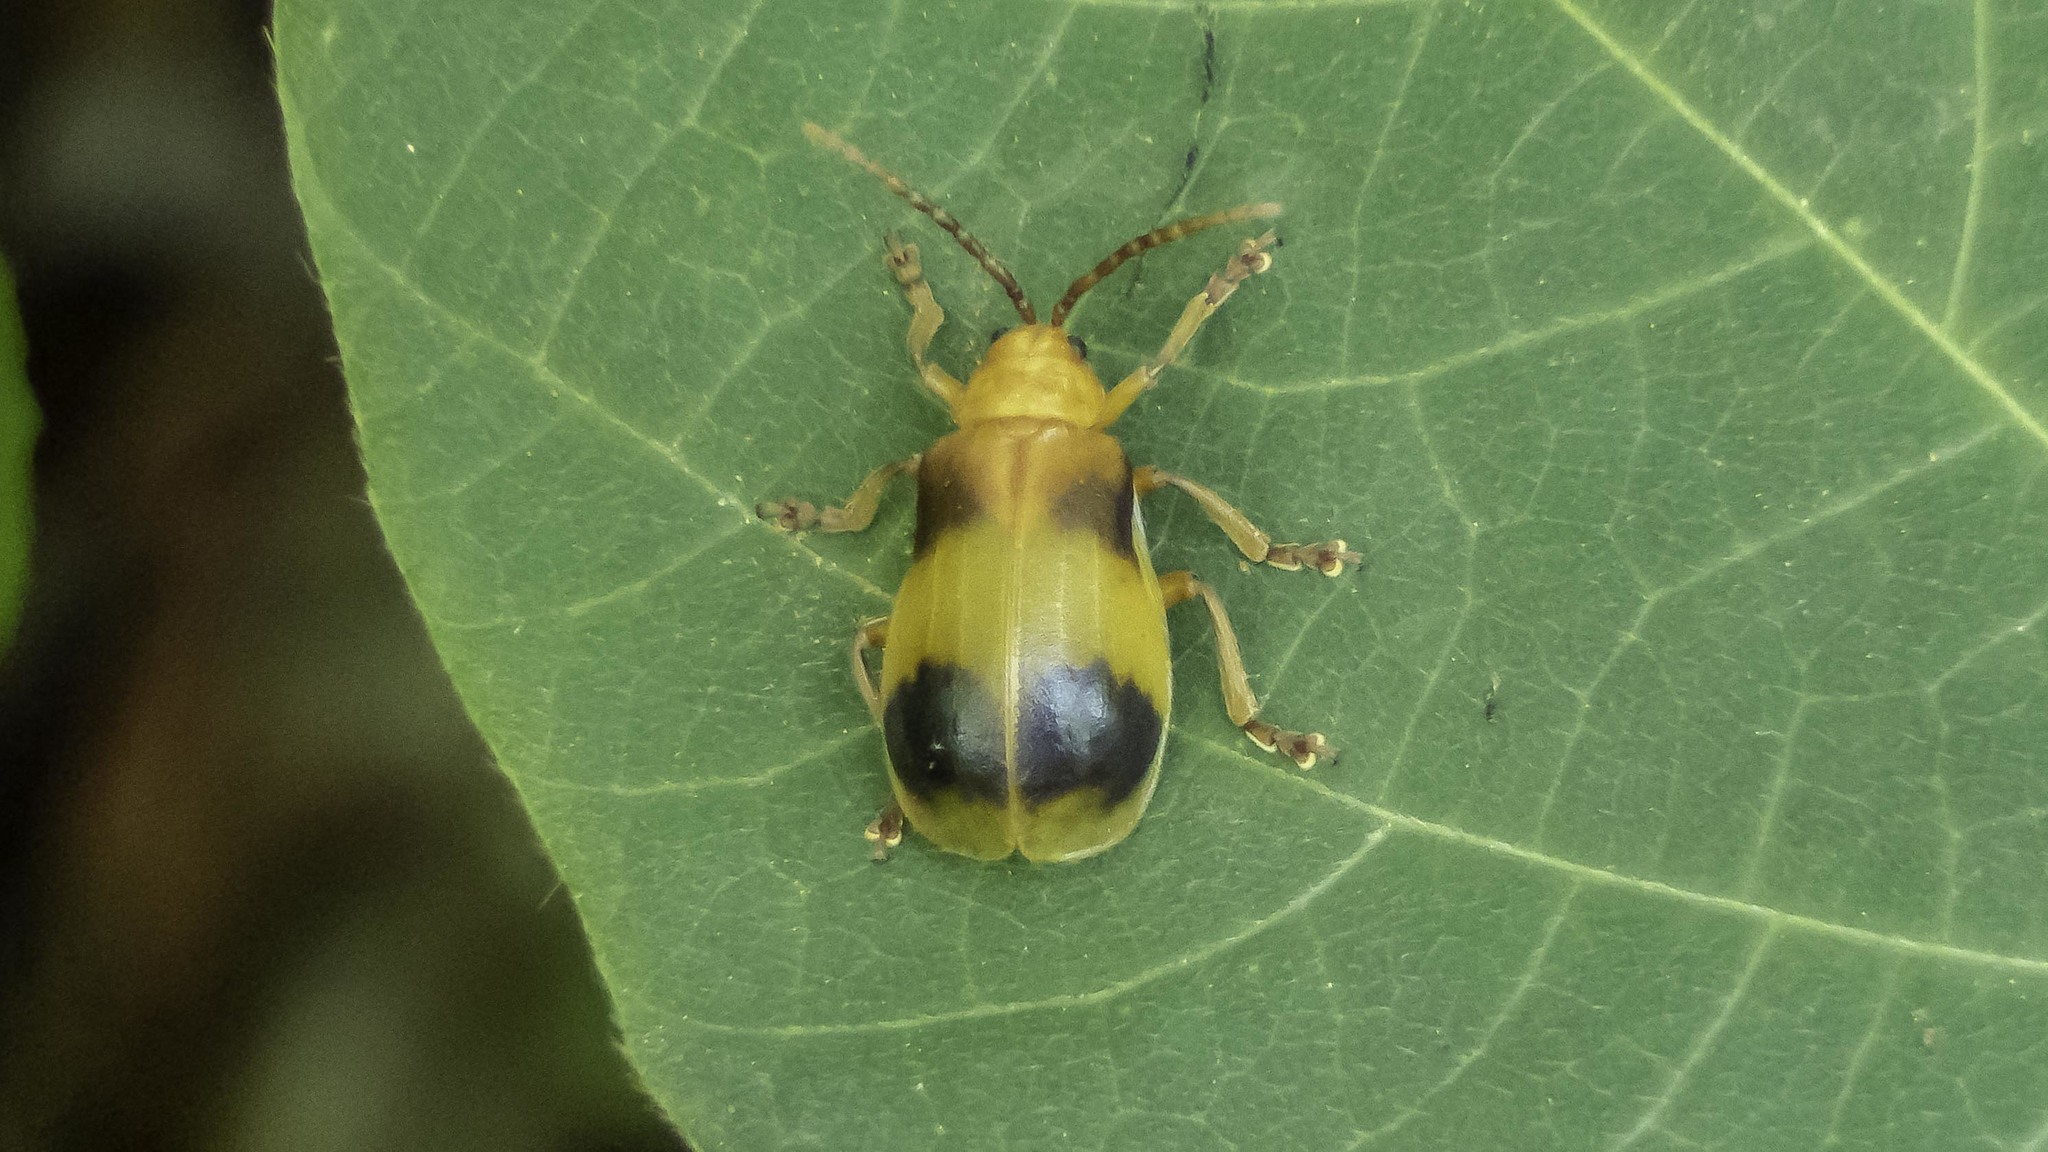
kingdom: Animalia
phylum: Arthropoda
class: Insecta
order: Coleoptera
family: Chrysomelidae
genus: Monocesta
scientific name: Monocesta coryli
